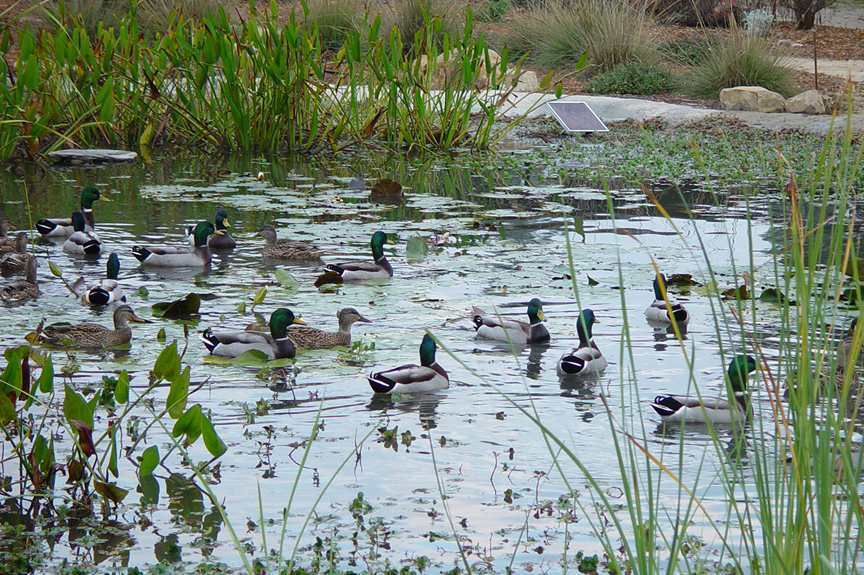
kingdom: Animalia
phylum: Chordata
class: Aves
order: Anseriformes
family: Anatidae
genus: Anas
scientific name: Anas platyrhynchos
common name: Mallard
